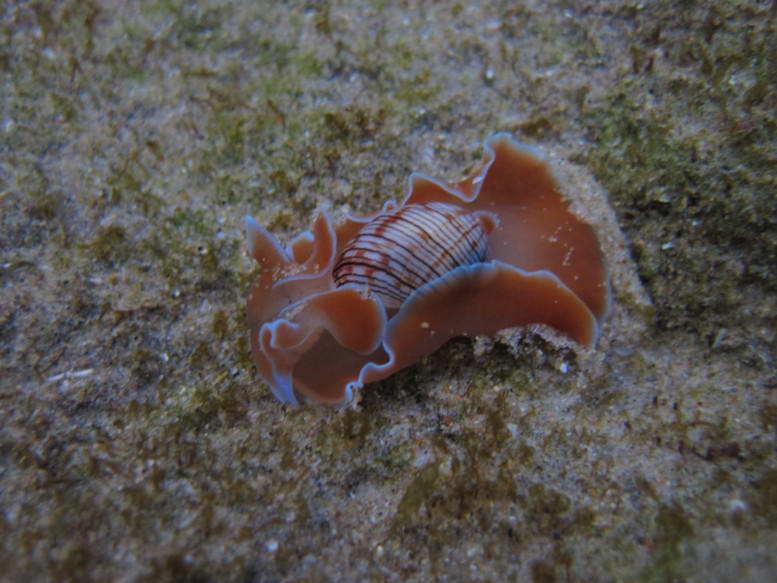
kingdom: Animalia
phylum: Mollusca
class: Gastropoda
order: Cephalaspidea
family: Aplustridae
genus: Hydatina
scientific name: Hydatina physis
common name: Brown-line paperbubble
